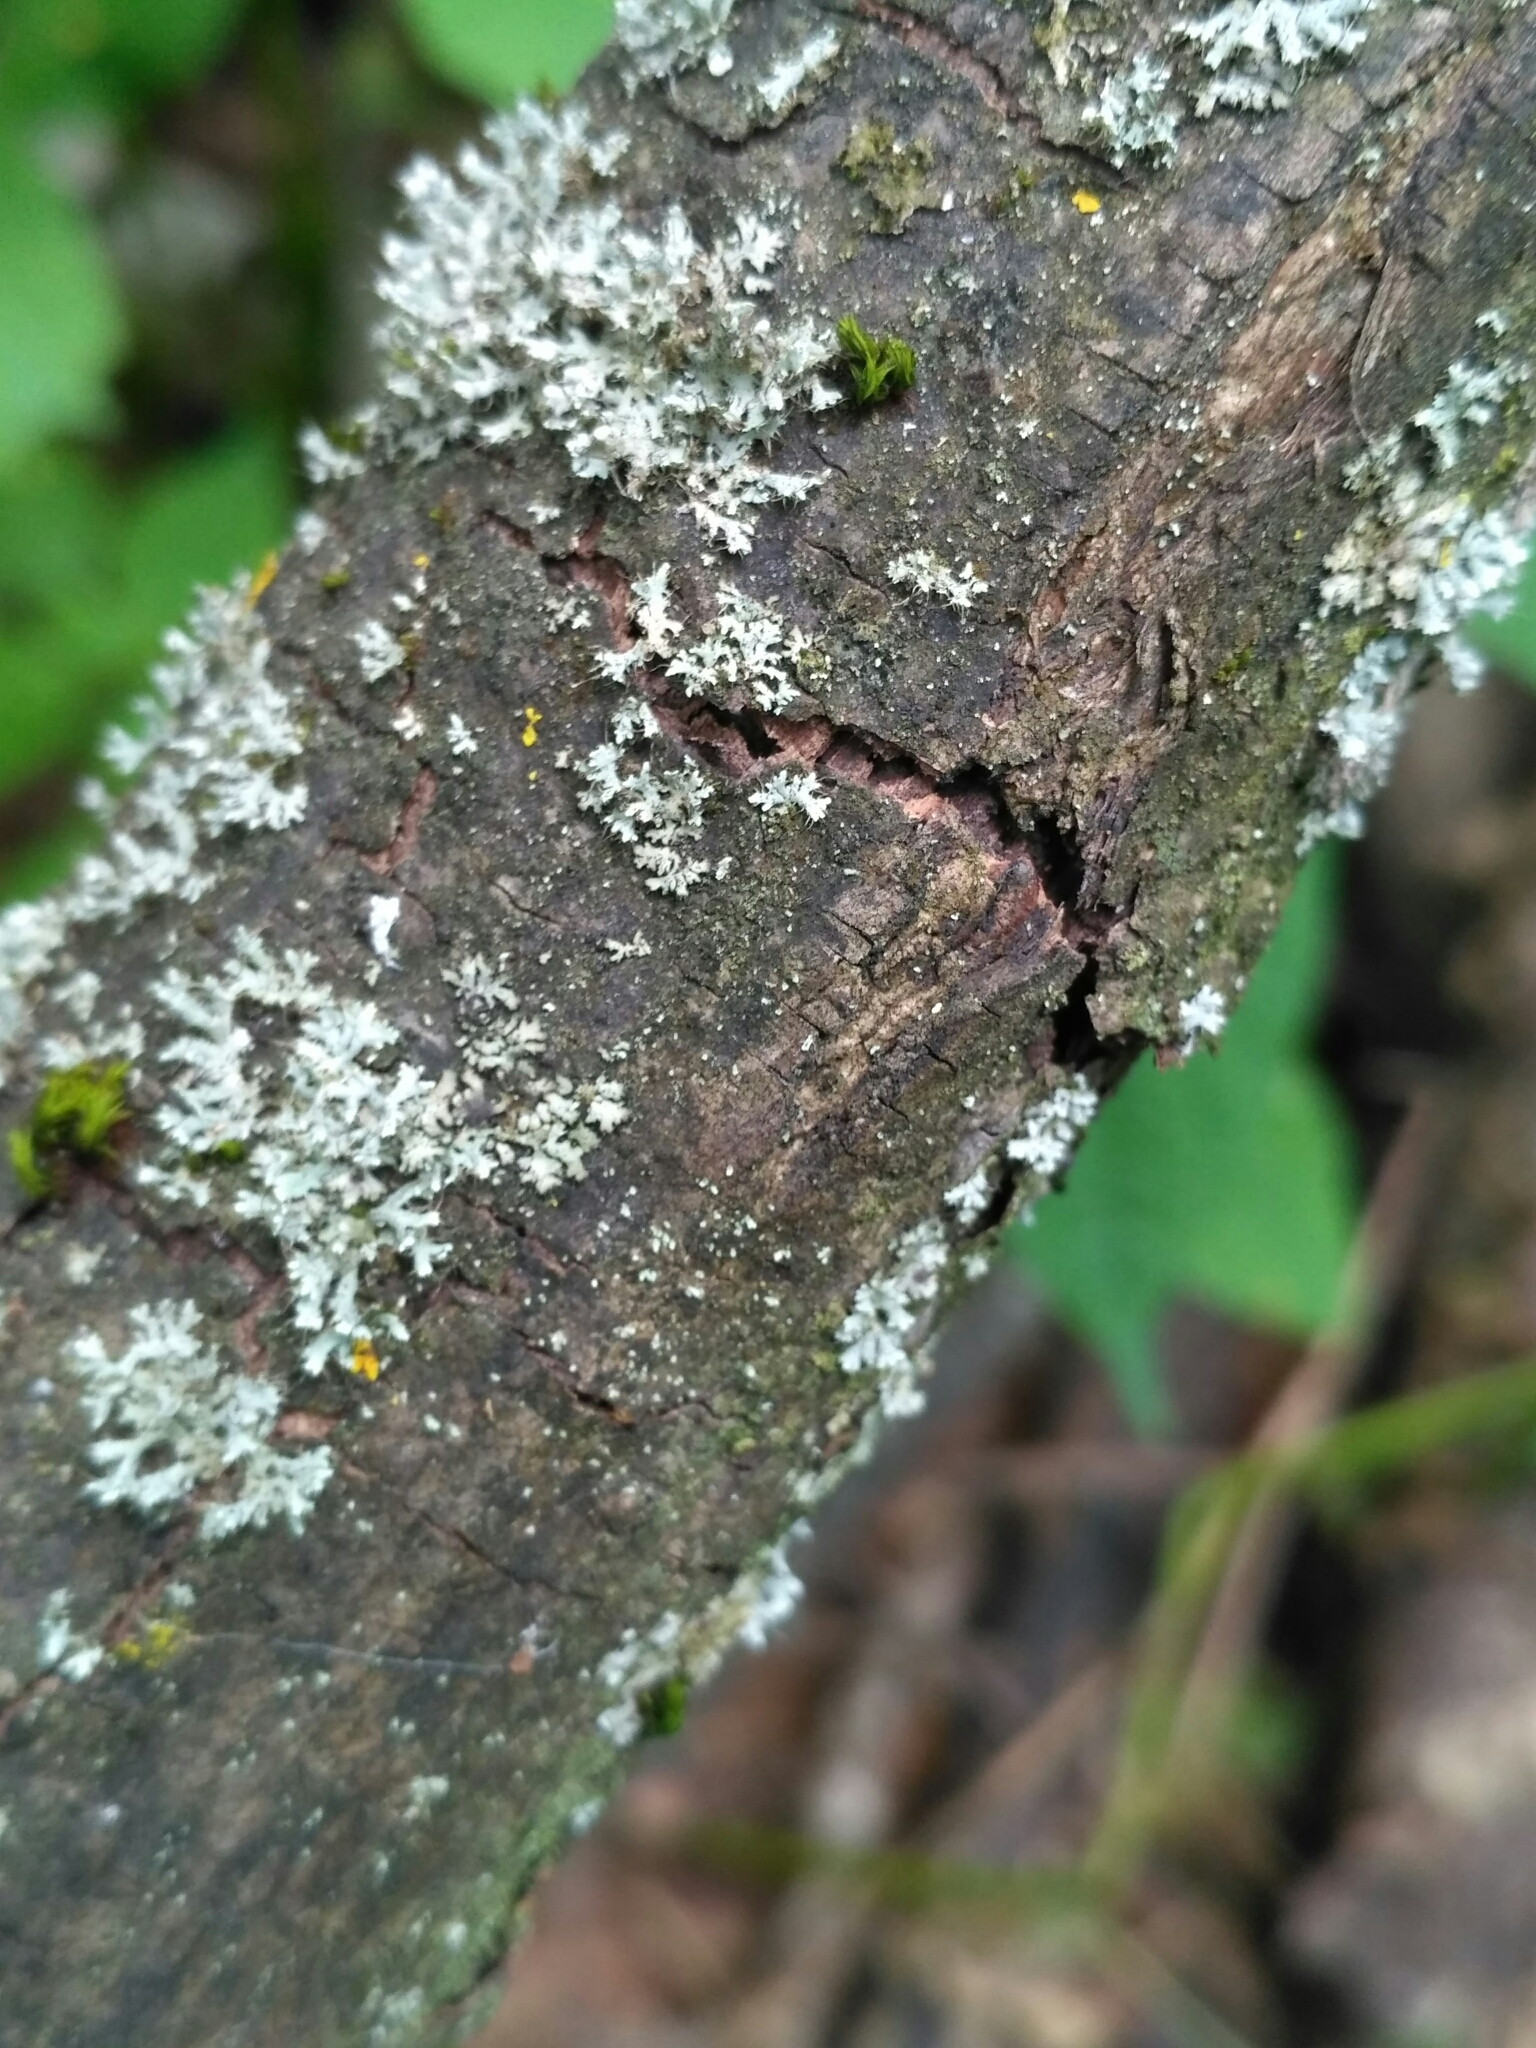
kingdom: Fungi
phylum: Ascomycota
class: Lecanoromycetes
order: Caliciales
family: Physciaceae
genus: Physcia
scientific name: Physcia adscendens
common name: Hooded rosette lichen
